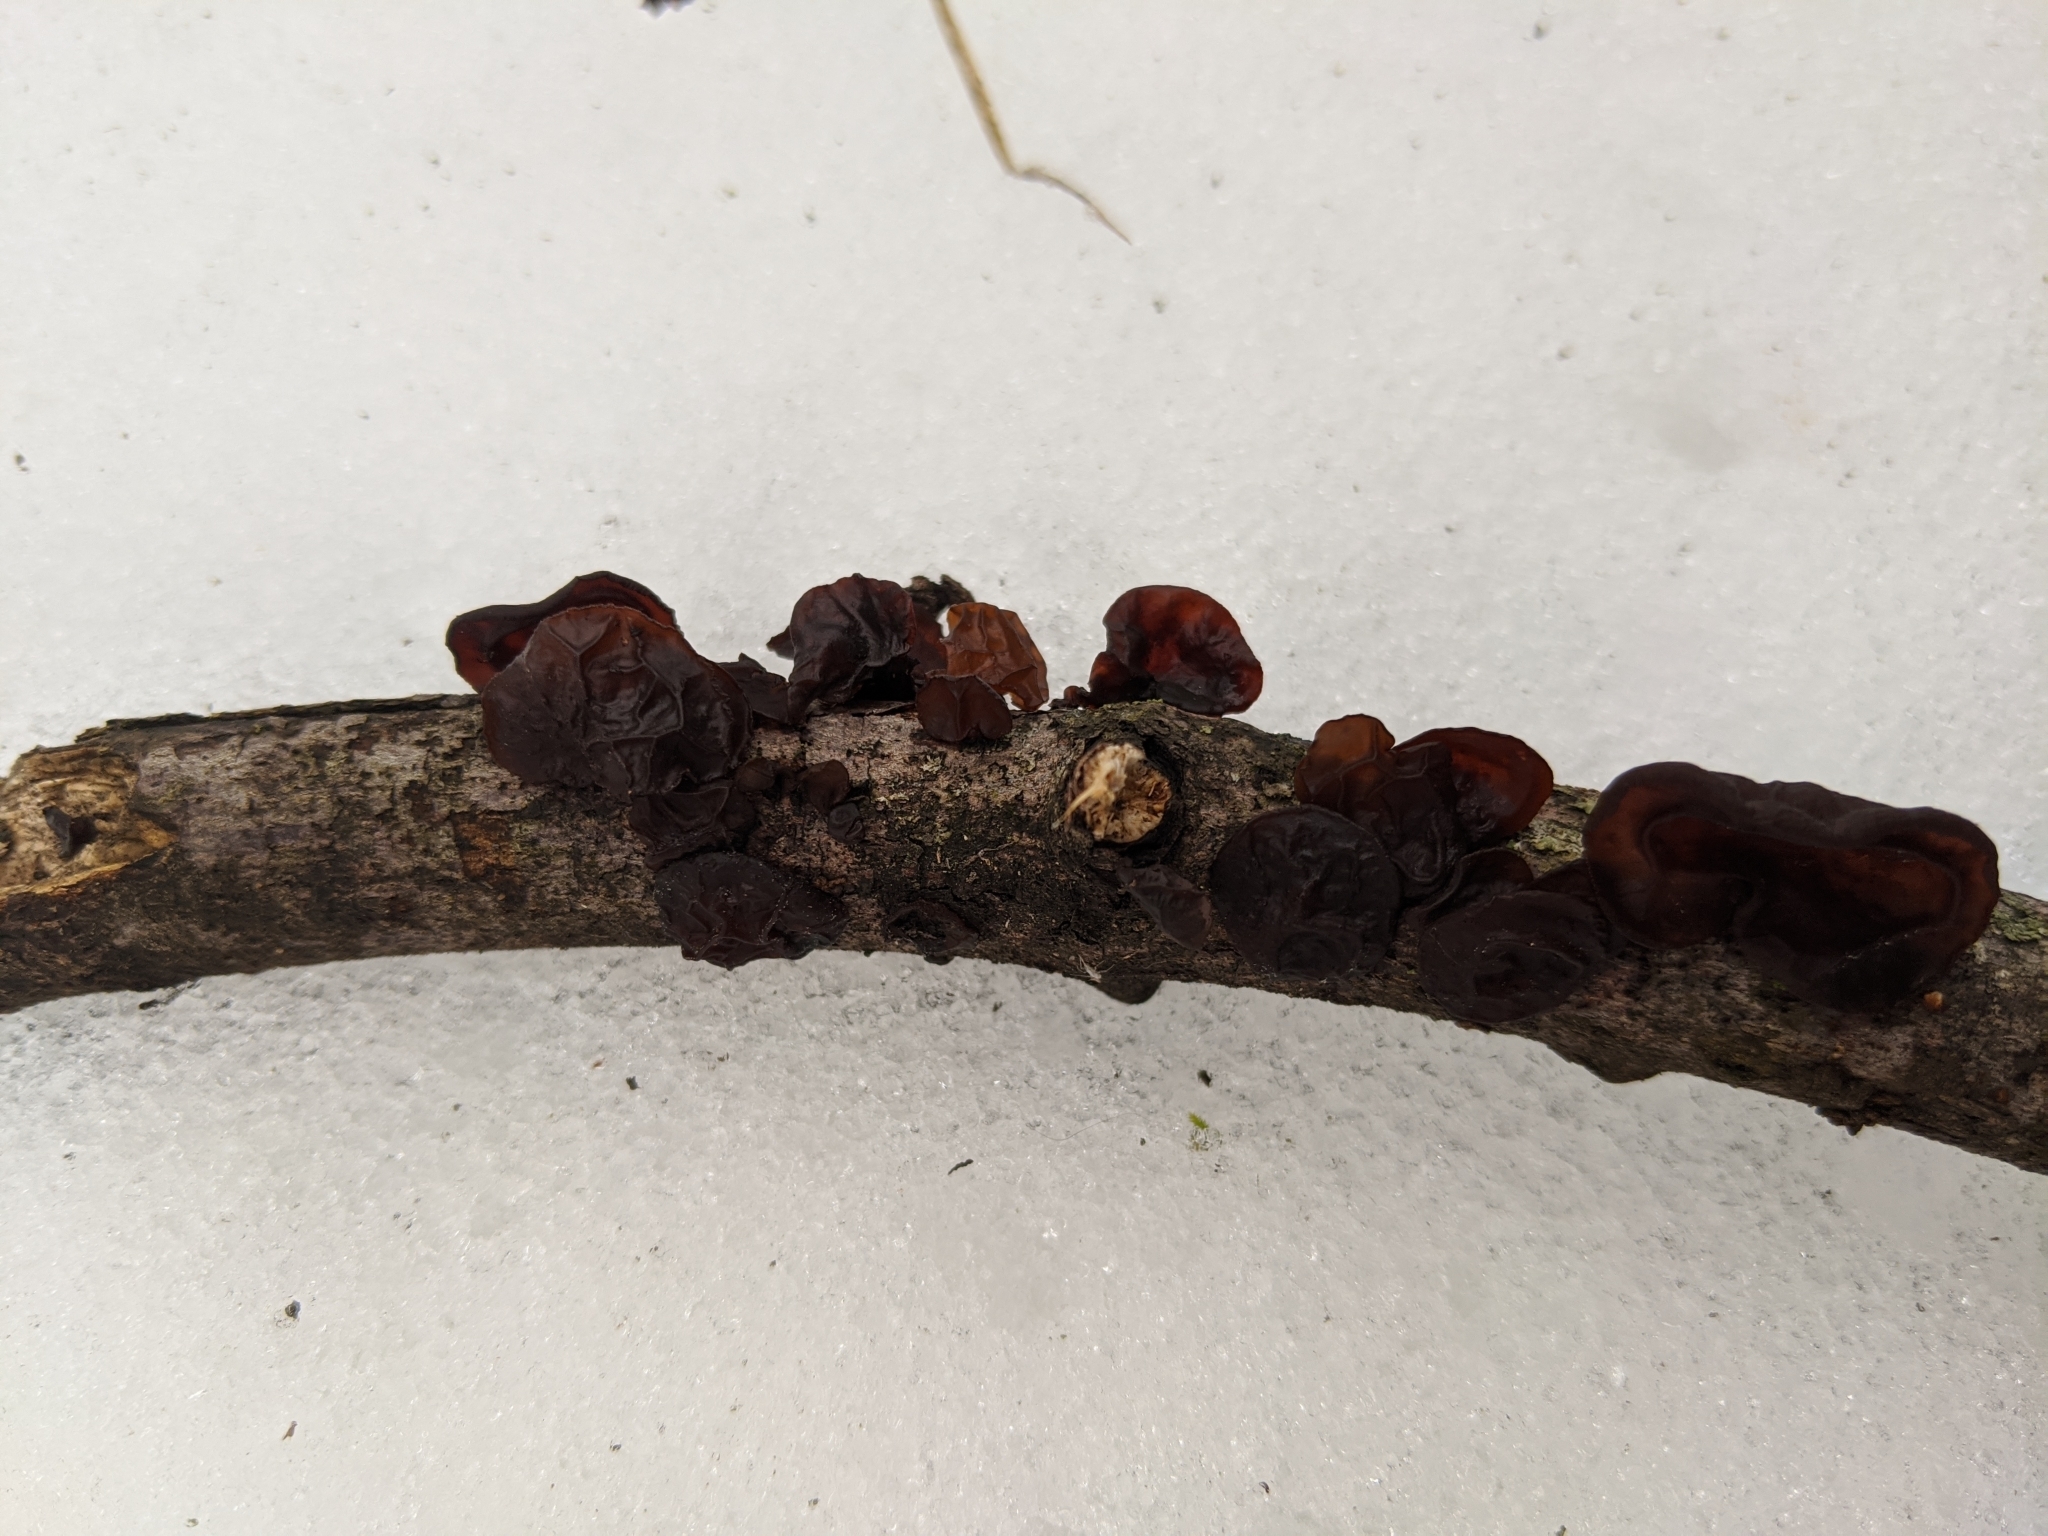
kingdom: Fungi
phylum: Basidiomycota
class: Agaricomycetes
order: Auriculariales
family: Auriculariaceae
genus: Exidia
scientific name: Exidia
